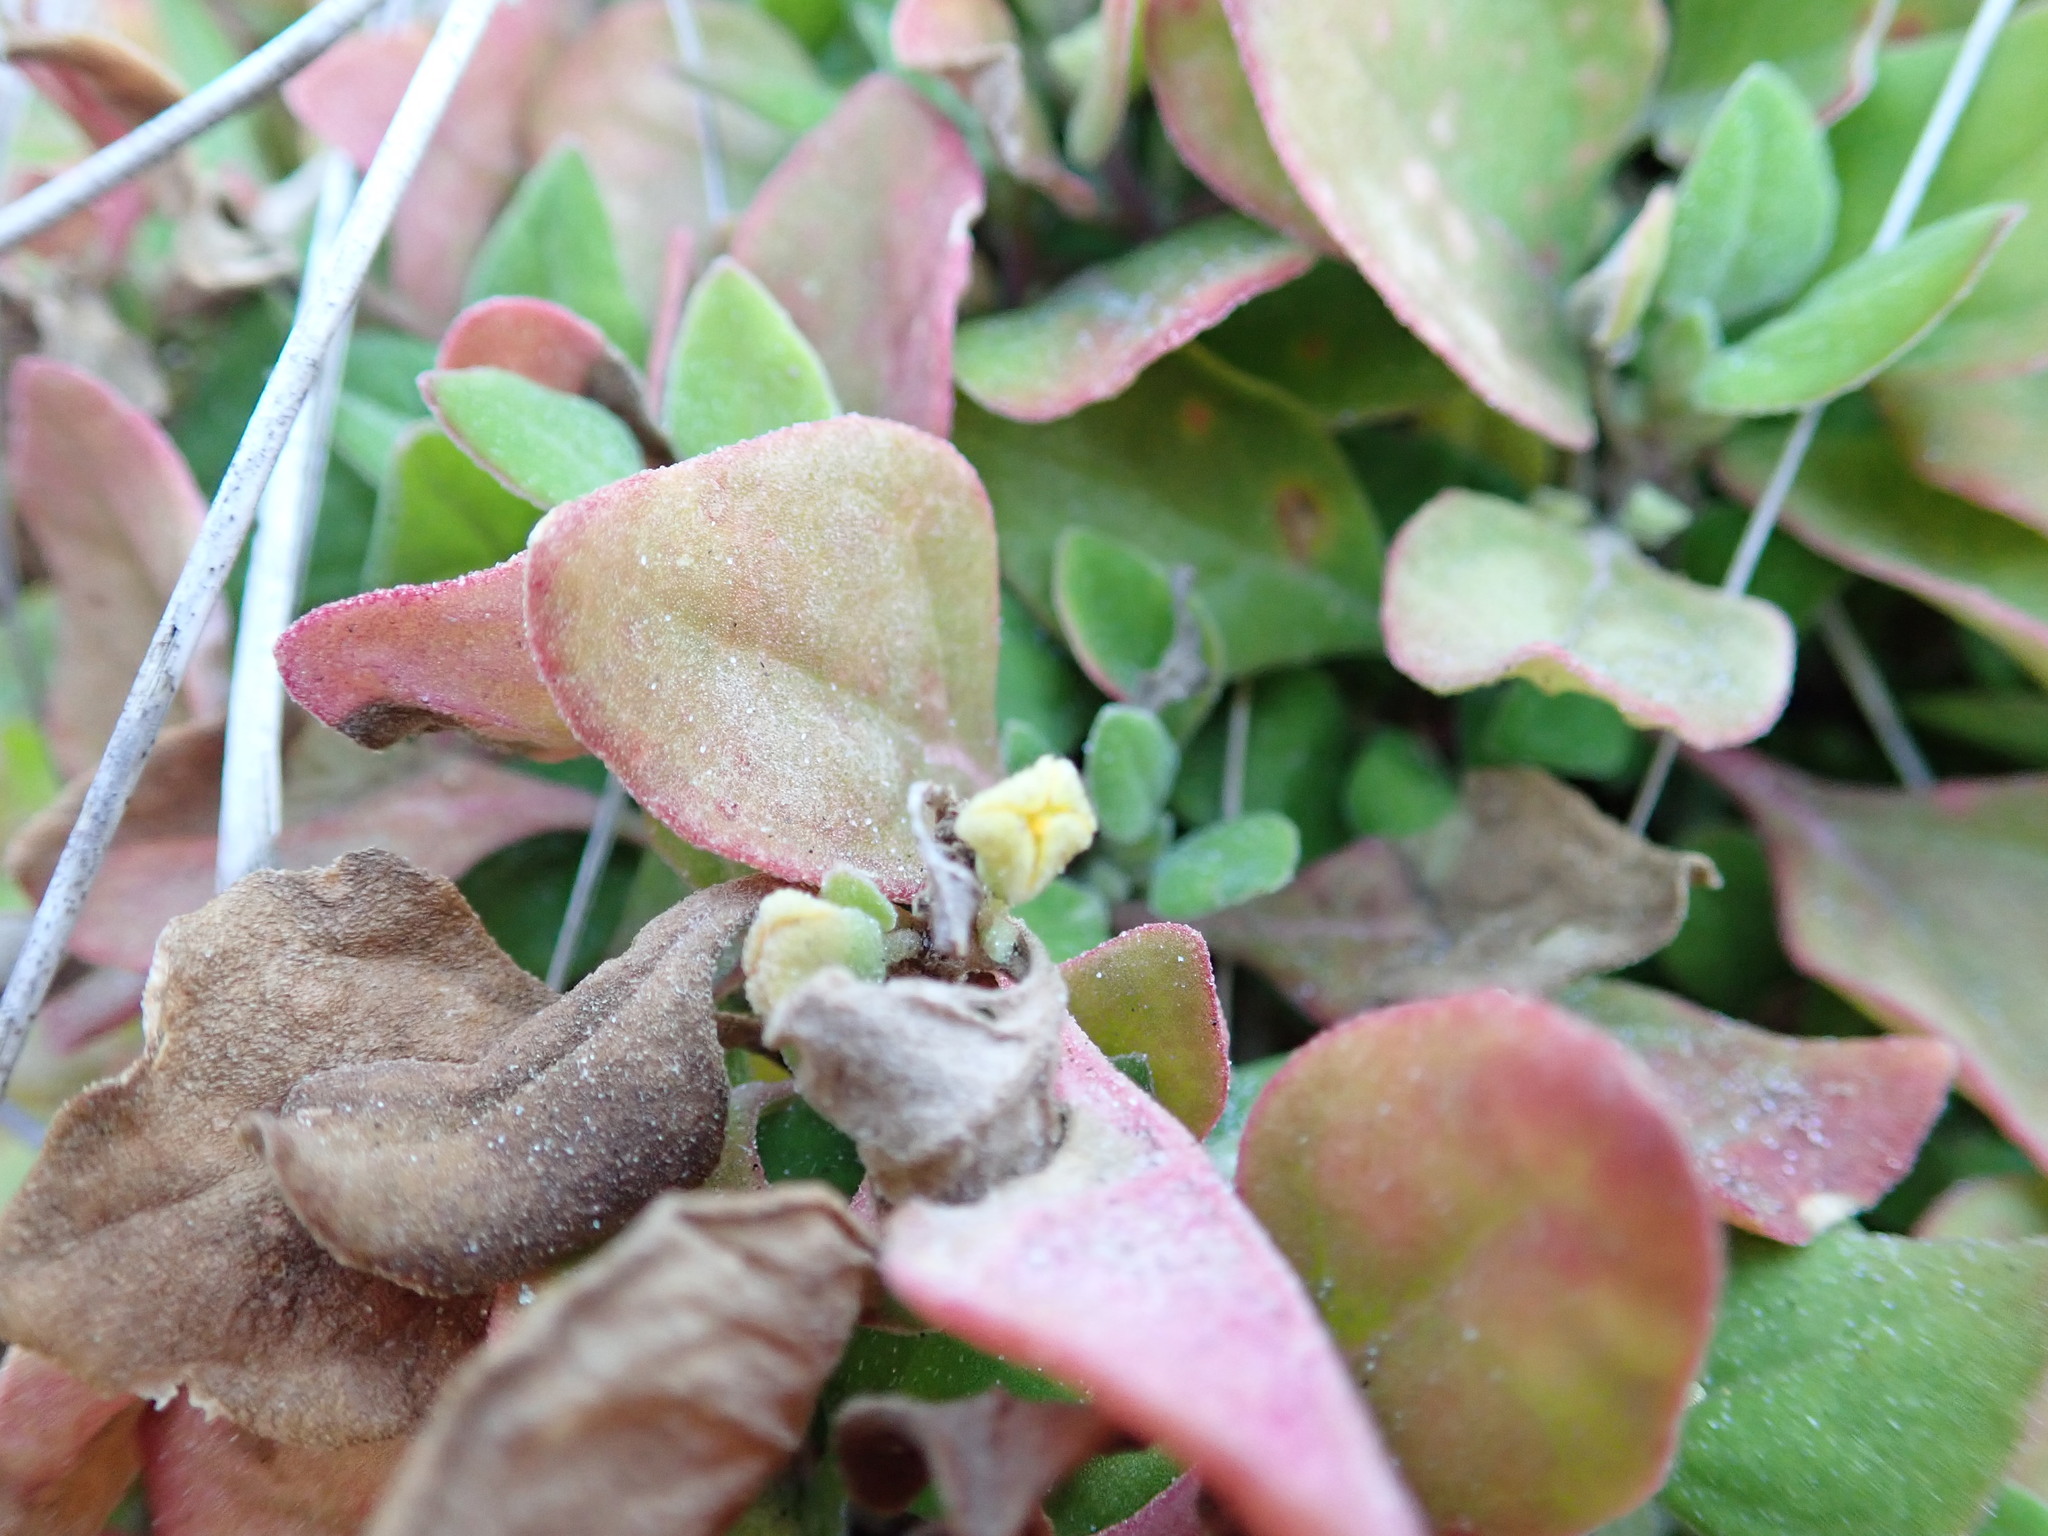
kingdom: Plantae
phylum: Tracheophyta
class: Magnoliopsida
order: Caryophyllales
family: Aizoaceae
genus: Tetragonia
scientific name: Tetragonia implexicoma
